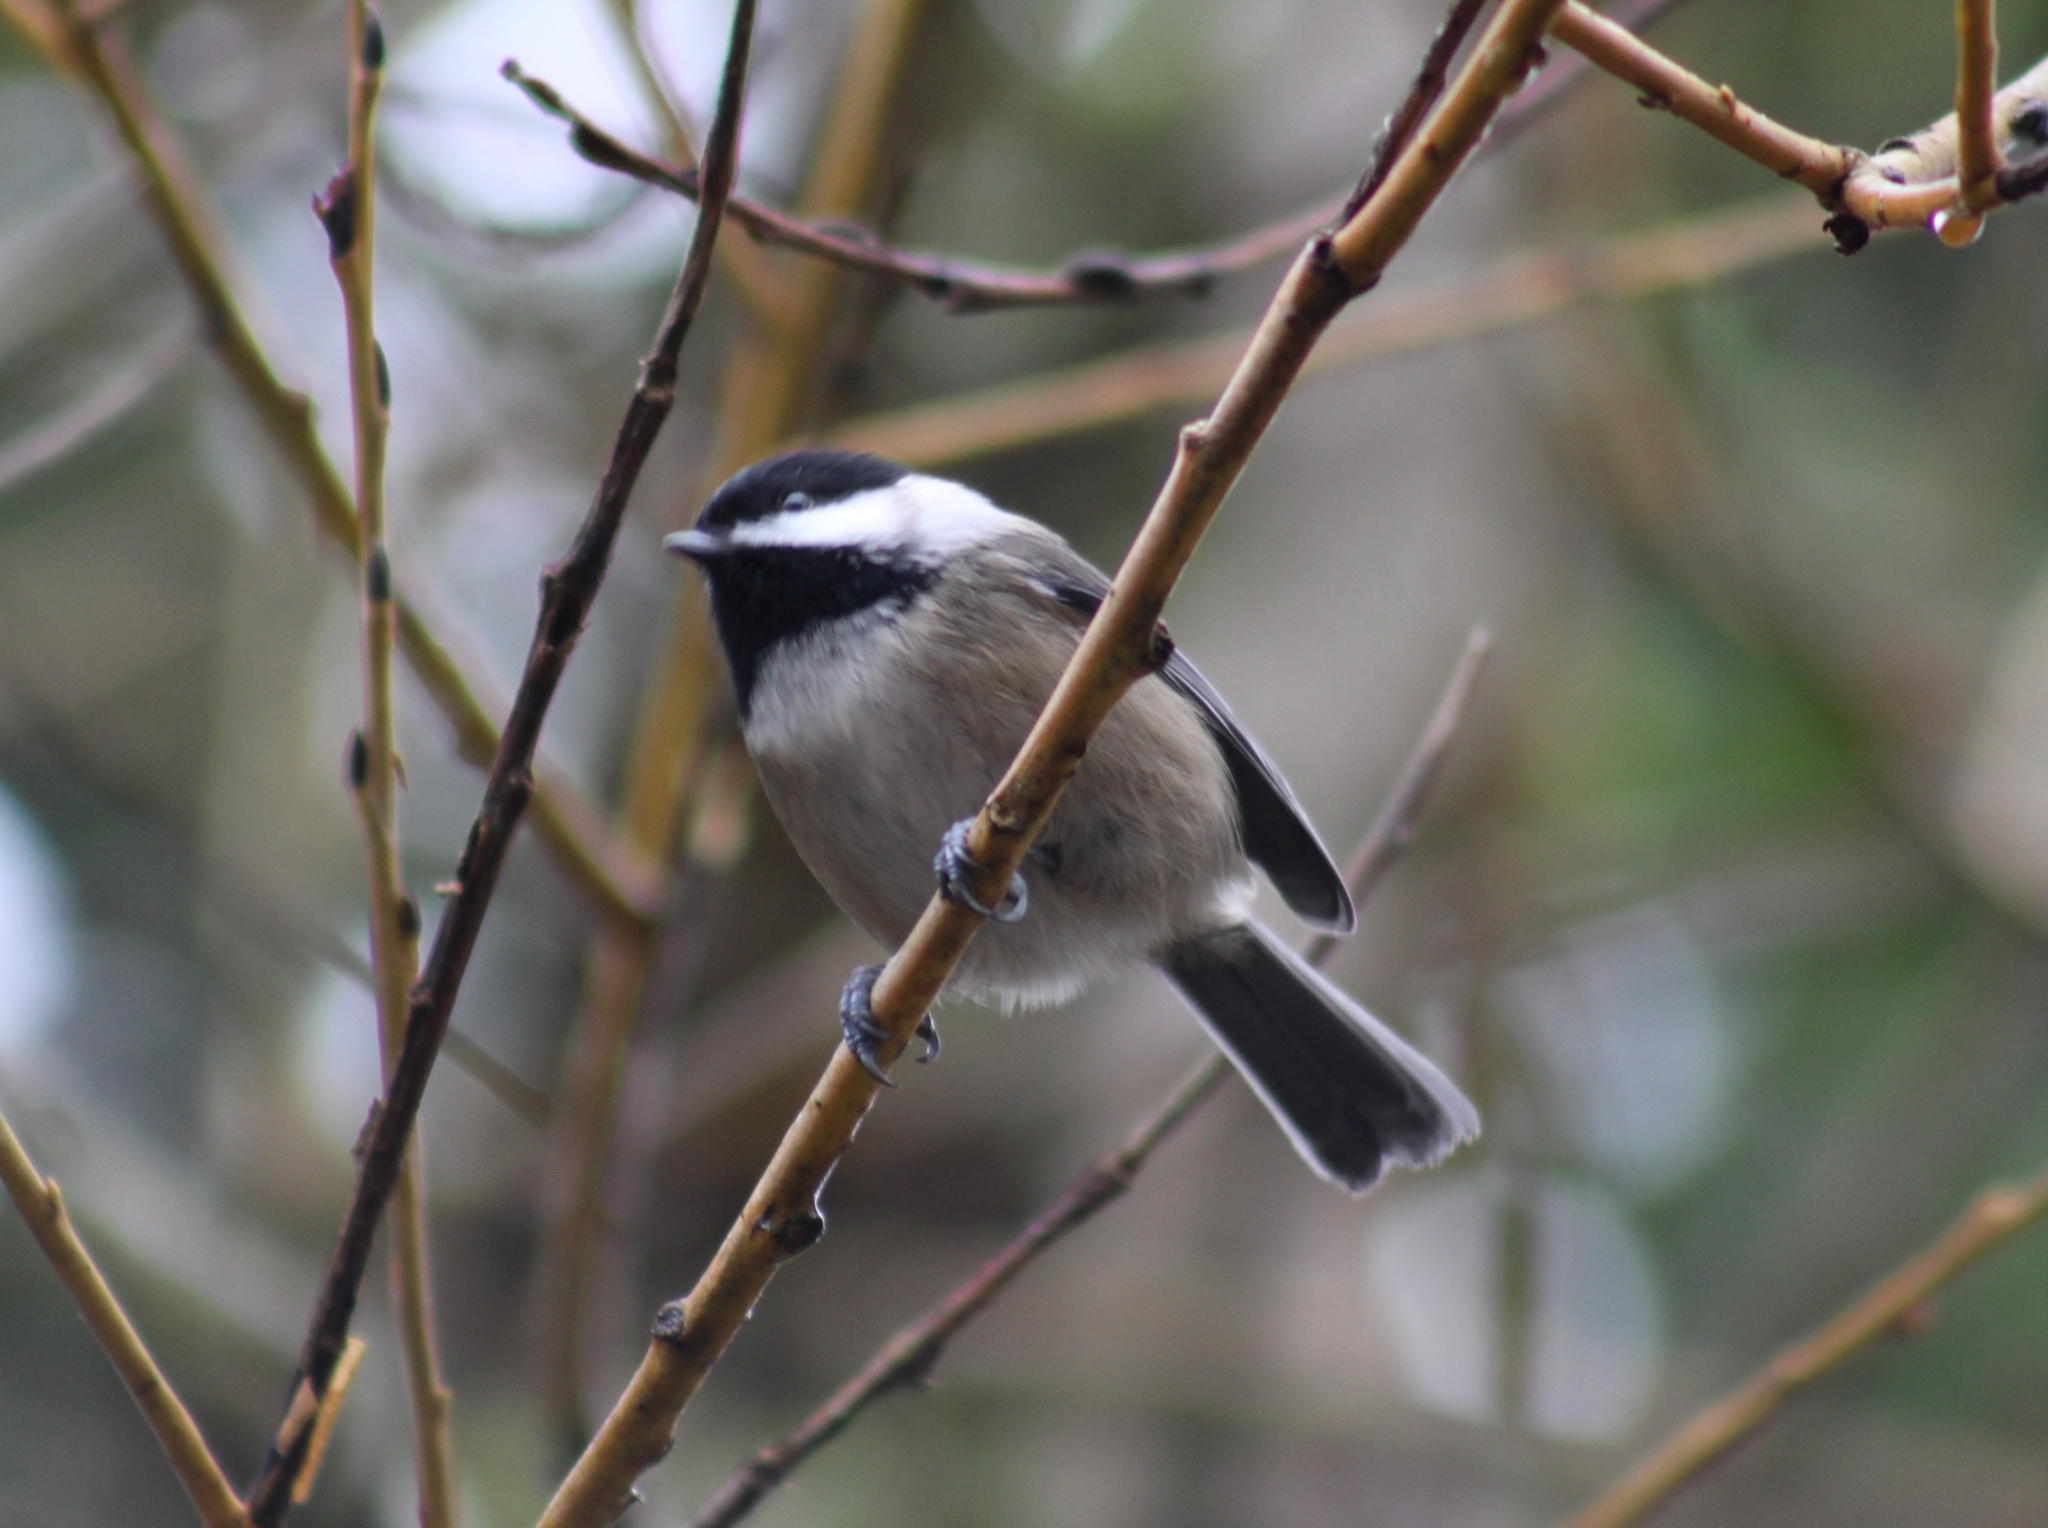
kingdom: Animalia
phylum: Chordata
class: Aves
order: Passeriformes
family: Paridae
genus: Poecile
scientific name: Poecile atricapillus
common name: Black-capped chickadee
